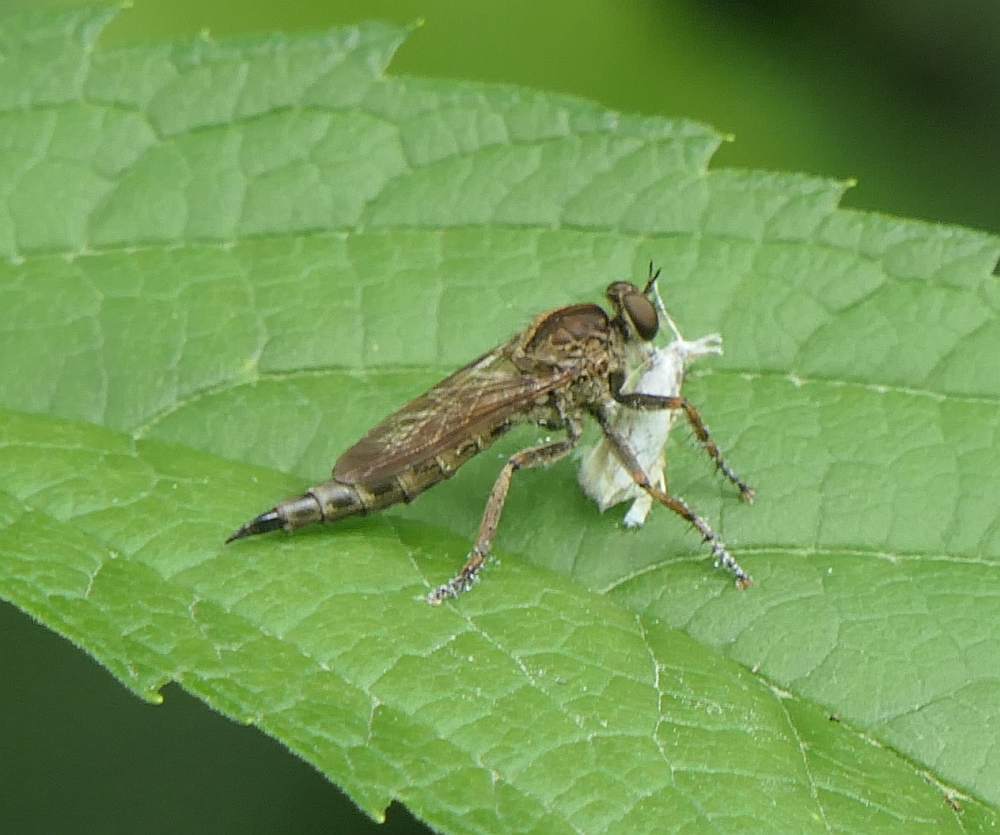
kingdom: Animalia
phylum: Arthropoda
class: Insecta
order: Diptera
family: Asilidae
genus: Machimus
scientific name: Machimus snowii
